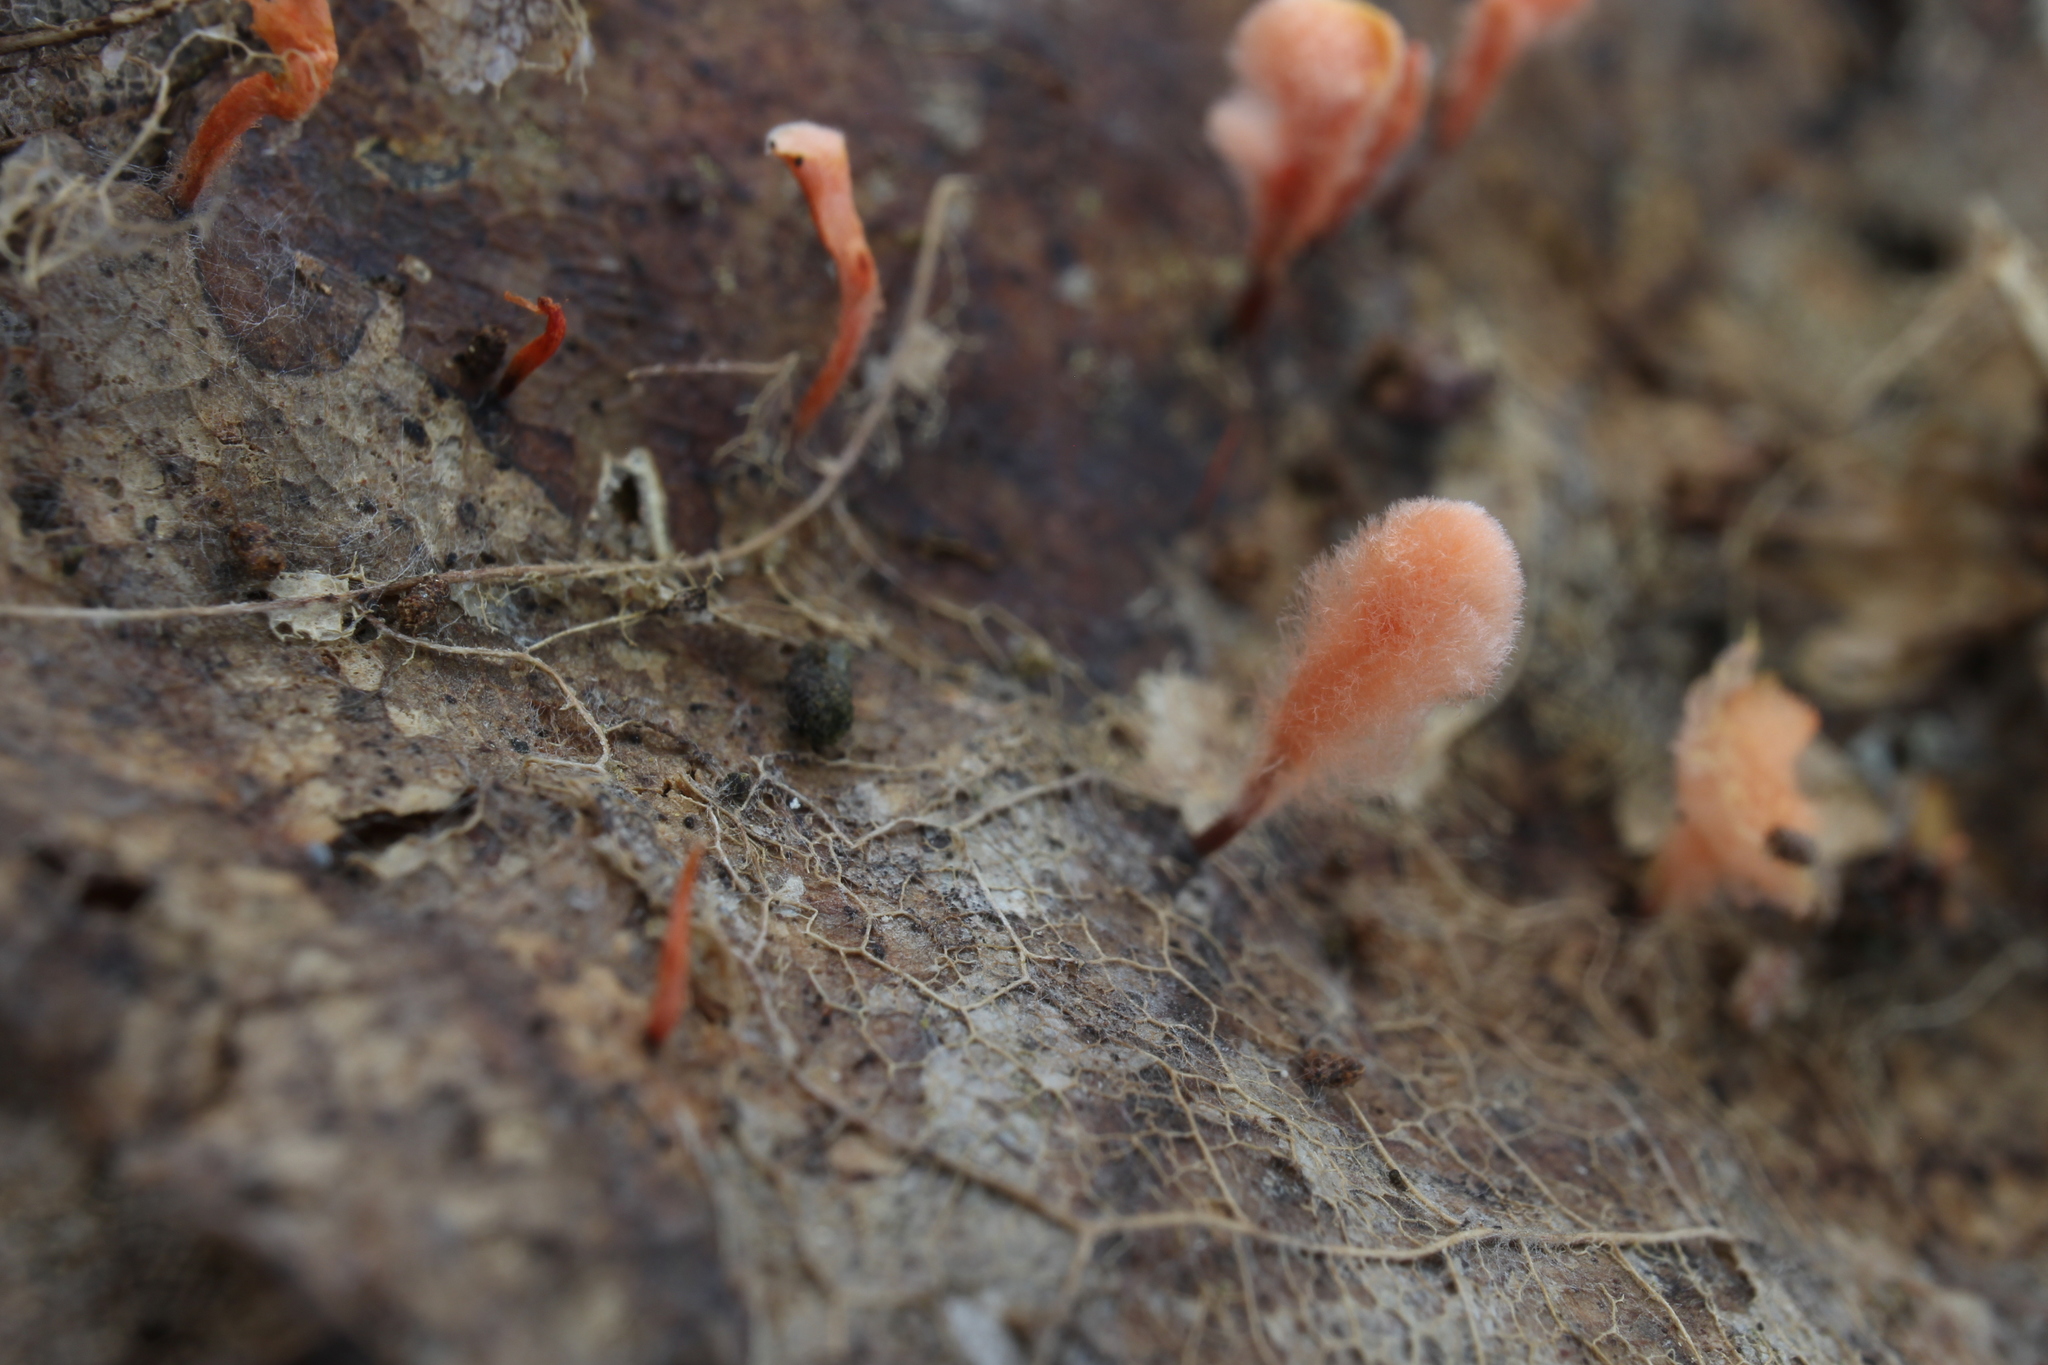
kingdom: Fungi
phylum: Ascomycota
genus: Anthina
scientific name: Anthina flammea
